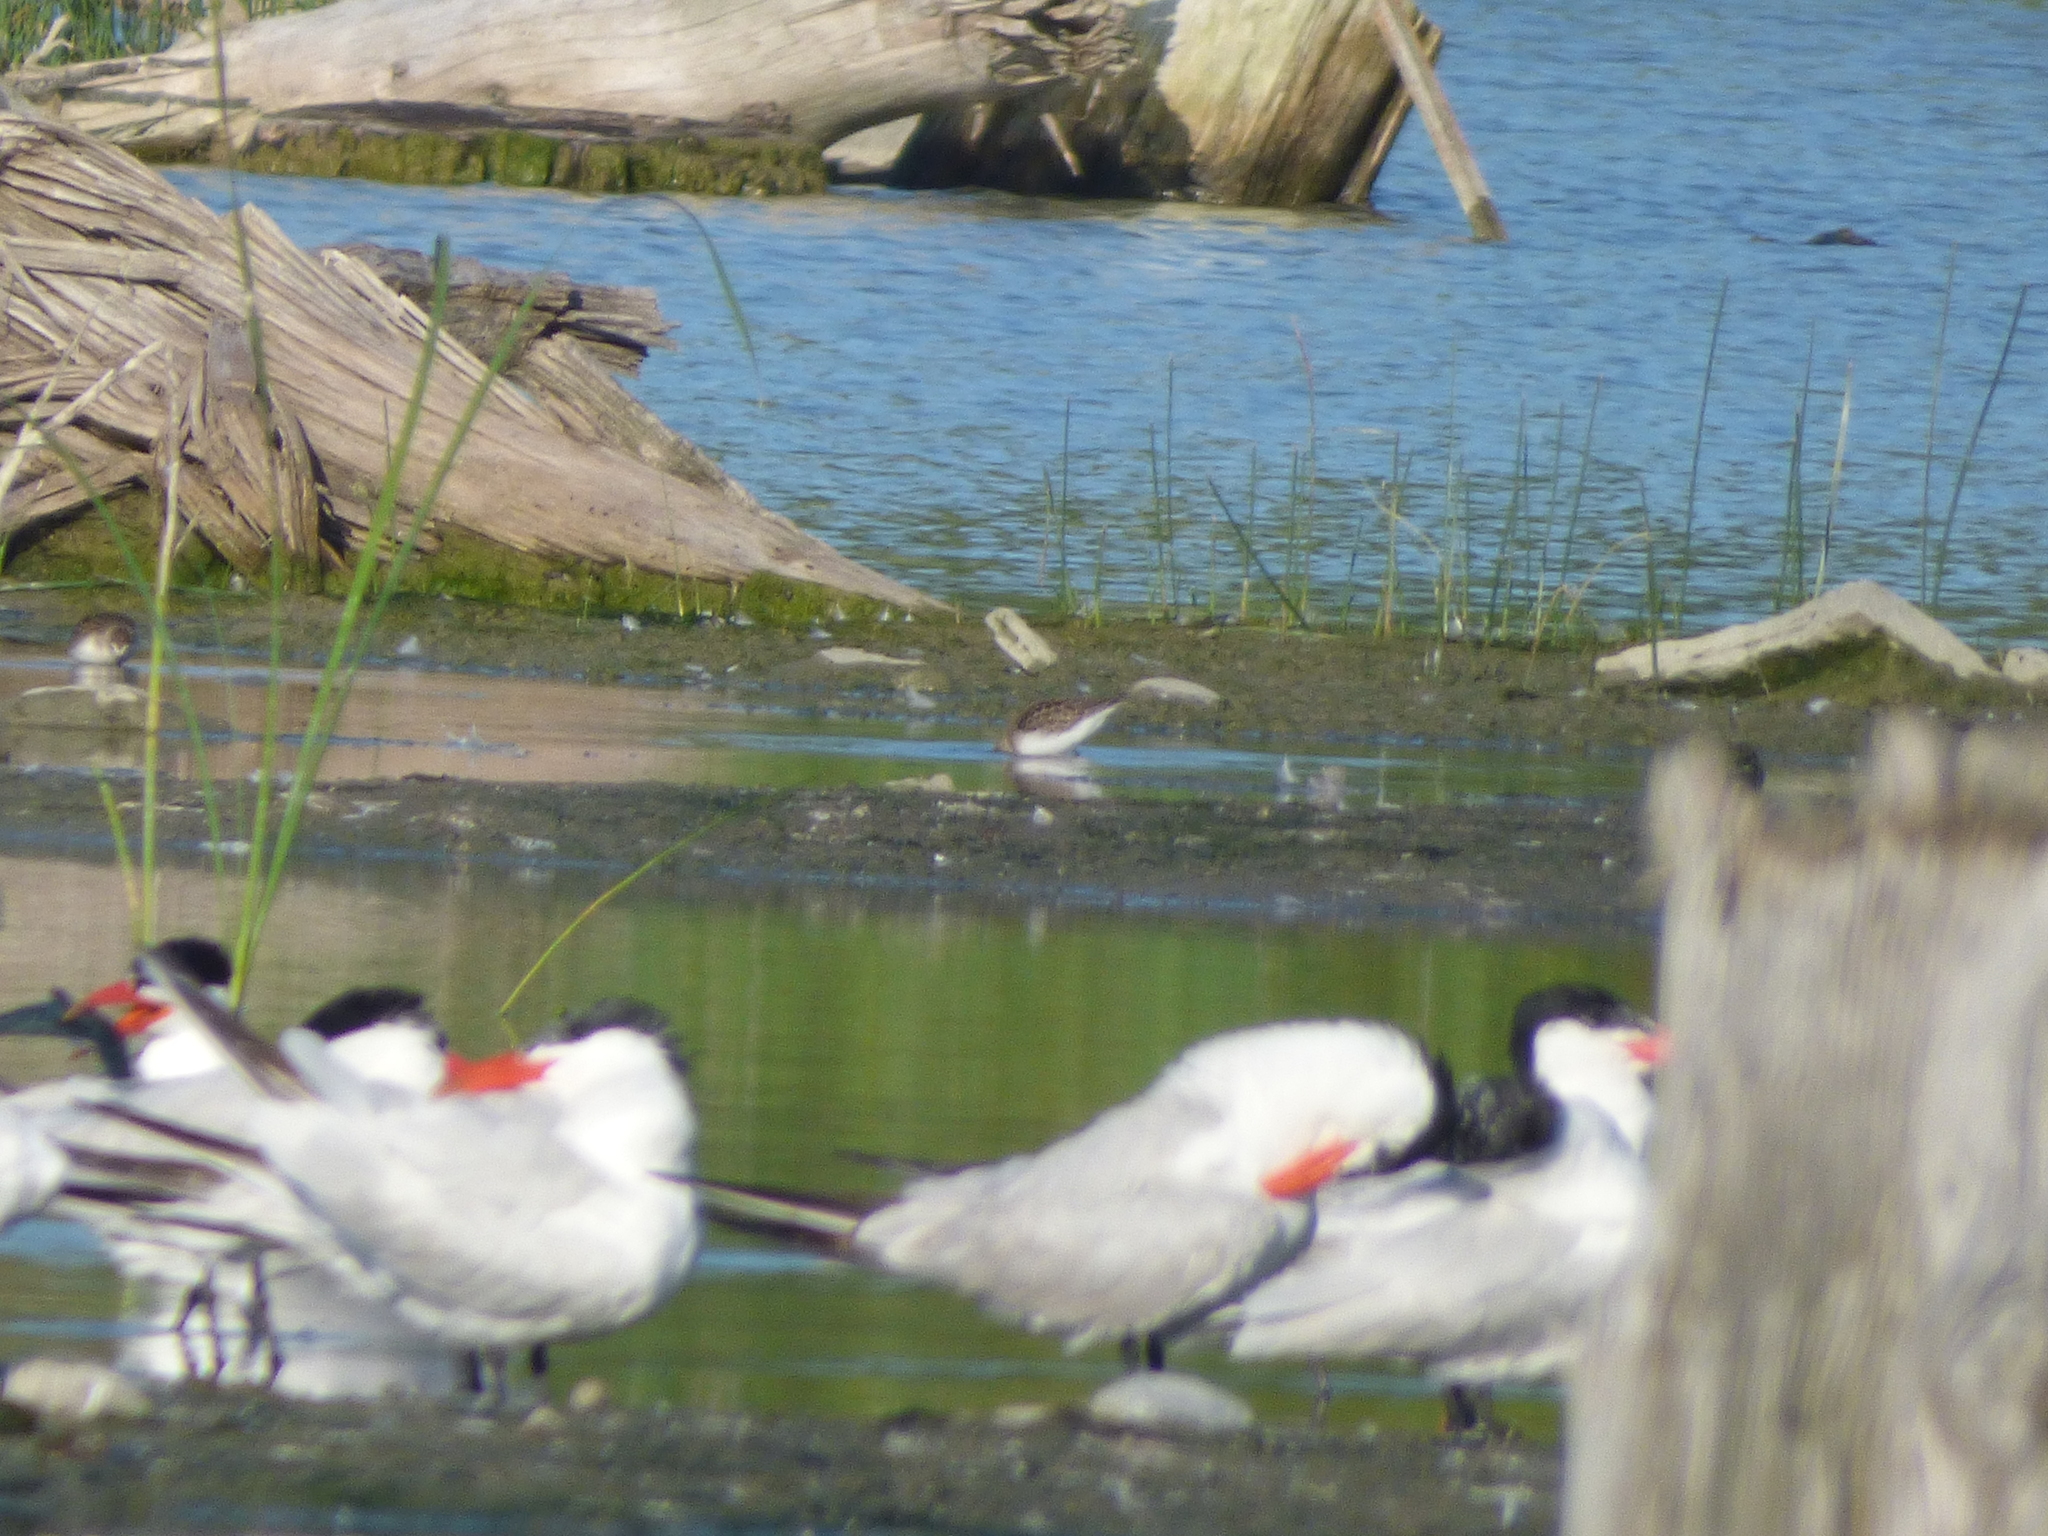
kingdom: Animalia
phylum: Chordata
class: Aves
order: Charadriiformes
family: Laridae
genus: Hydroprogne
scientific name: Hydroprogne caspia
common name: Caspian tern
